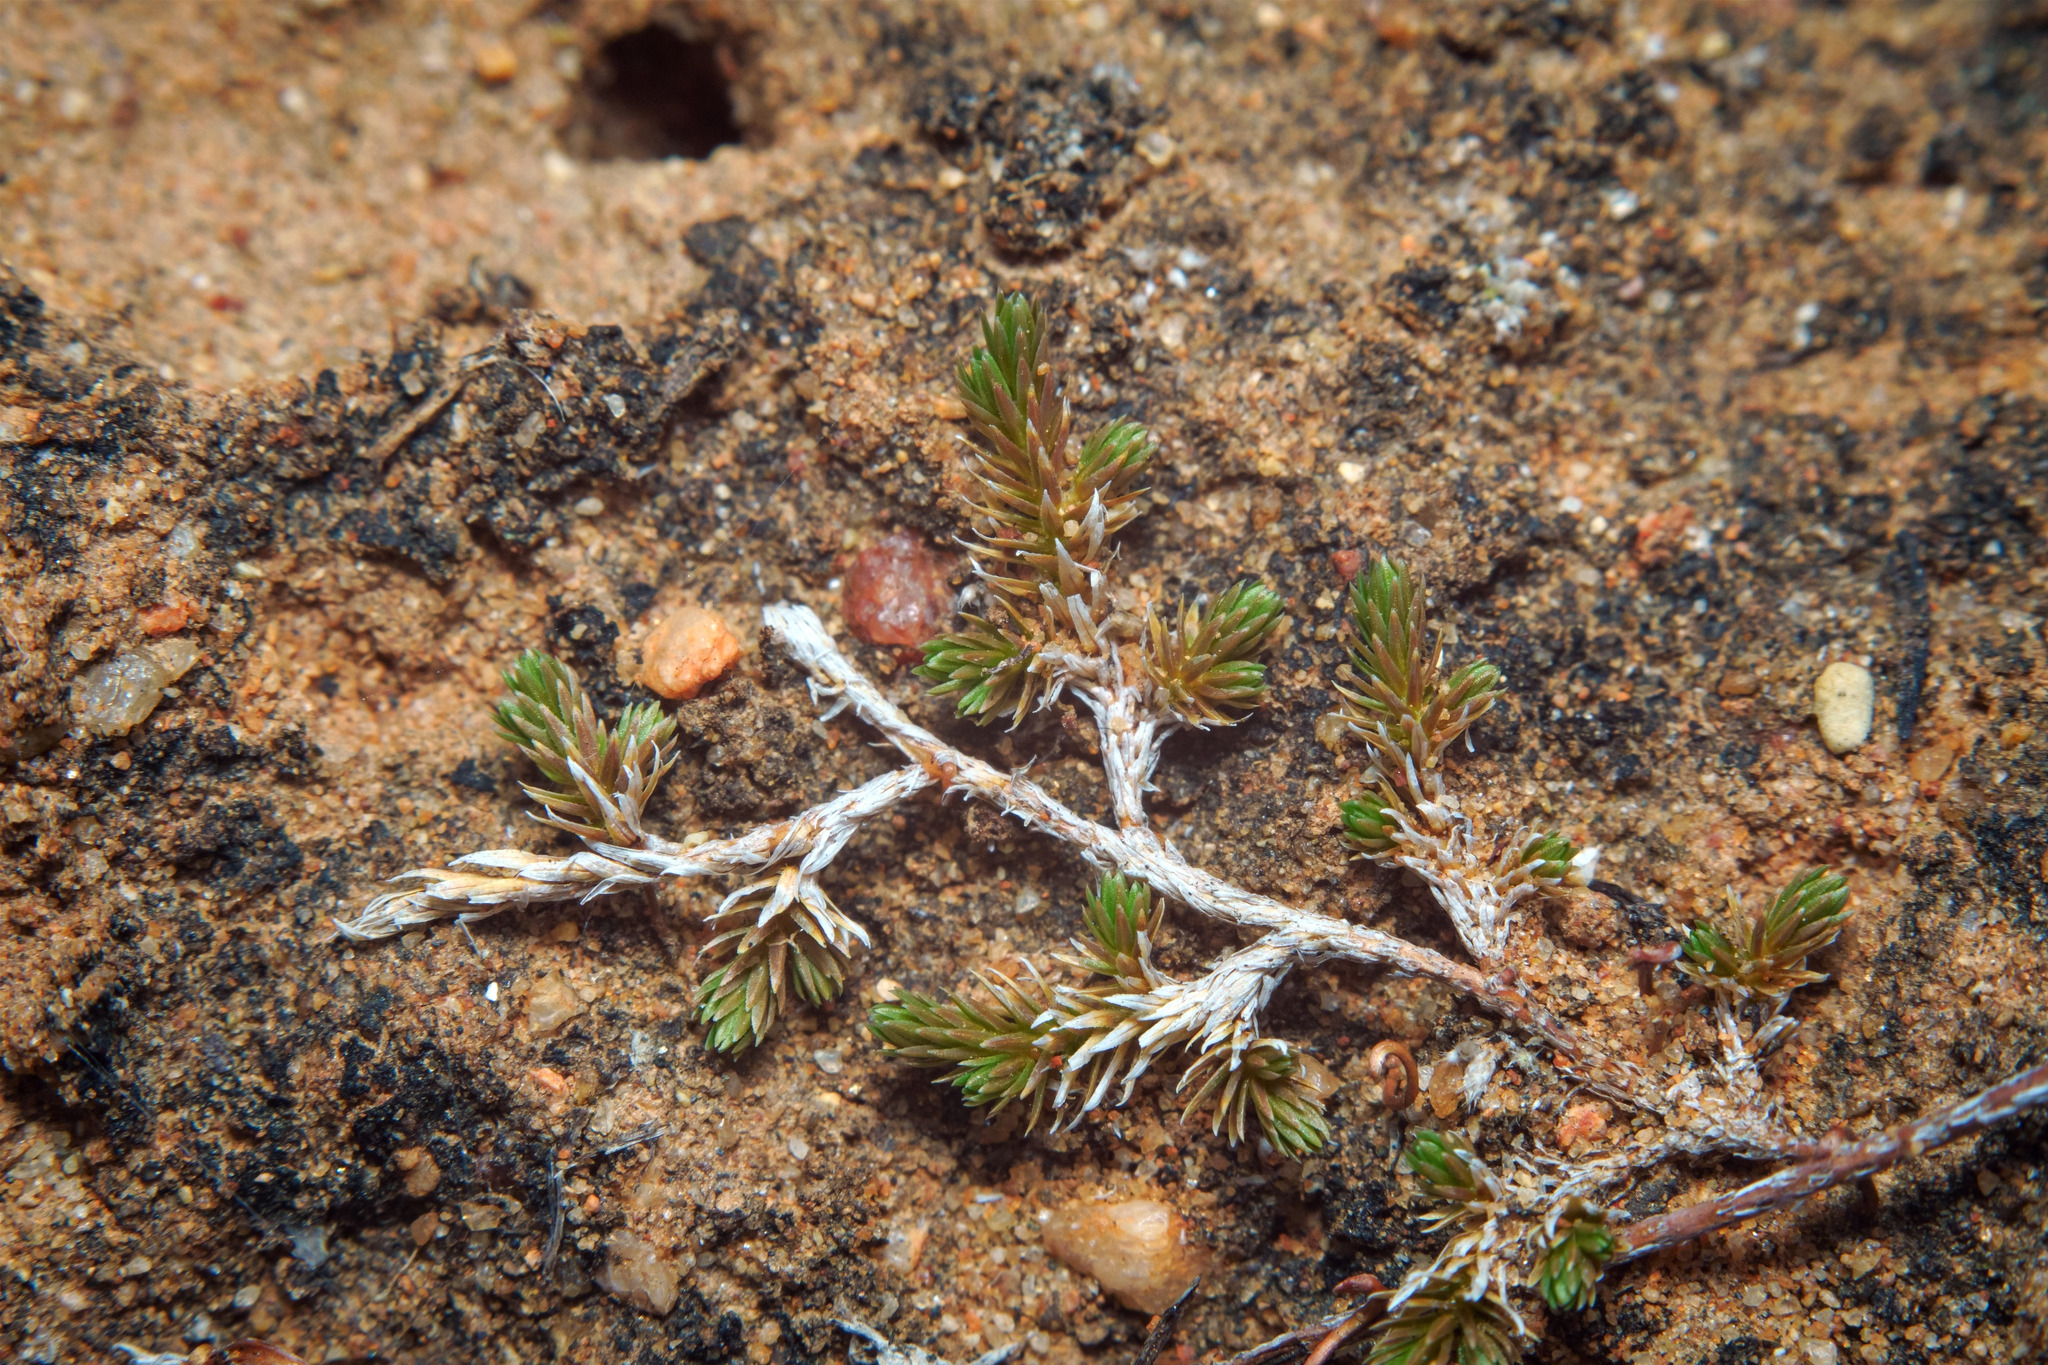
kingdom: Plantae
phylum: Tracheophyta
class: Lycopodiopsida
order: Selaginellales
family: Selaginellaceae
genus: Selaginella
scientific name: Selaginella cinerascens
